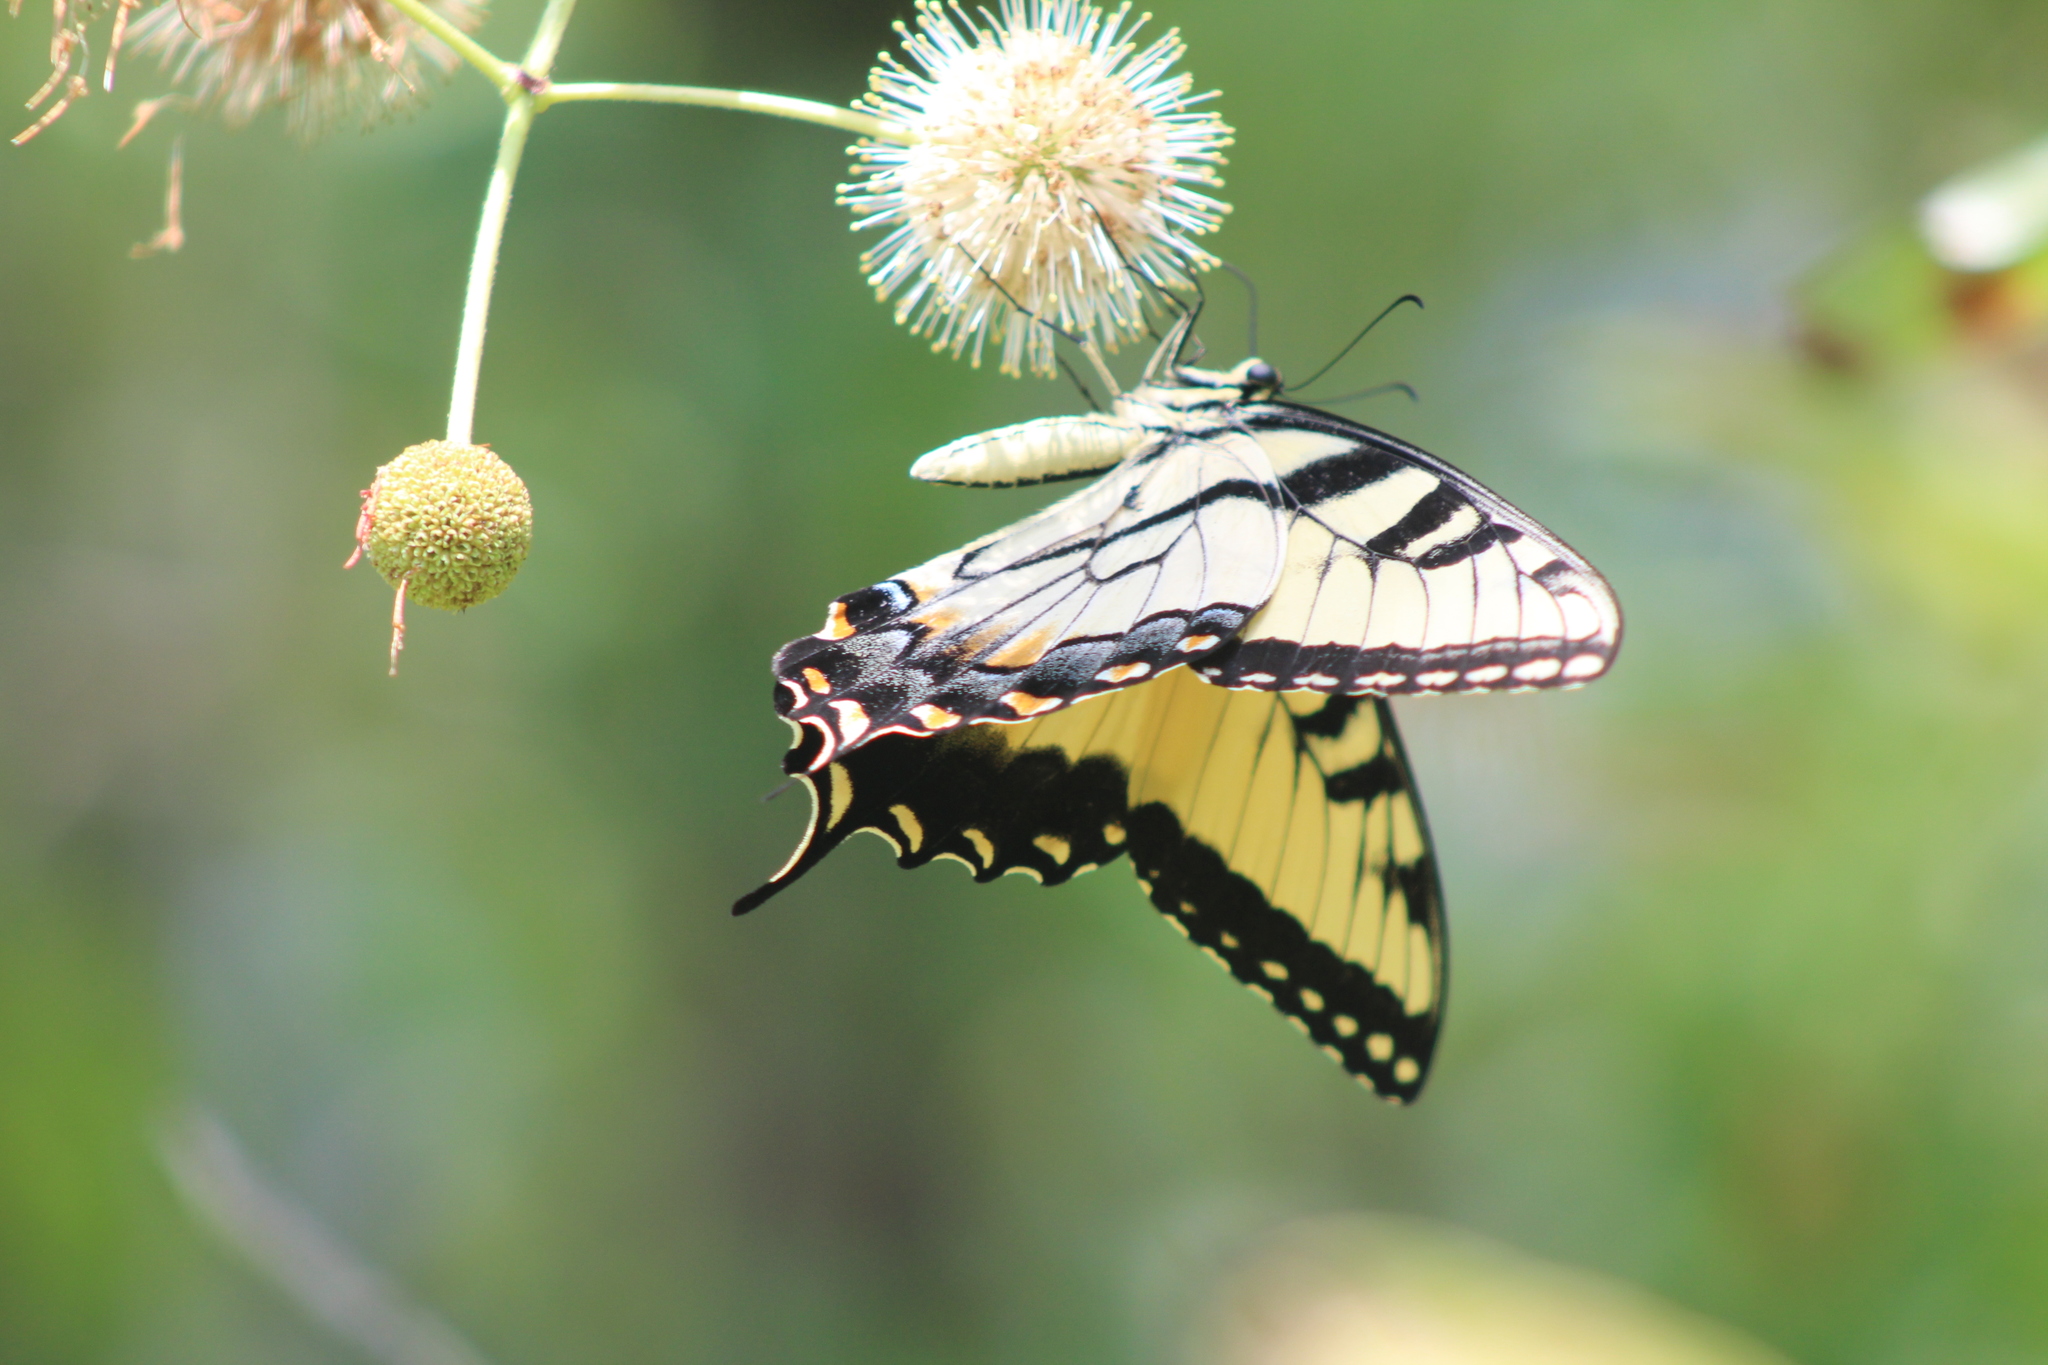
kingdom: Animalia
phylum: Arthropoda
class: Insecta
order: Lepidoptera
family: Papilionidae
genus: Papilio
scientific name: Papilio glaucus
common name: Tiger swallowtail
